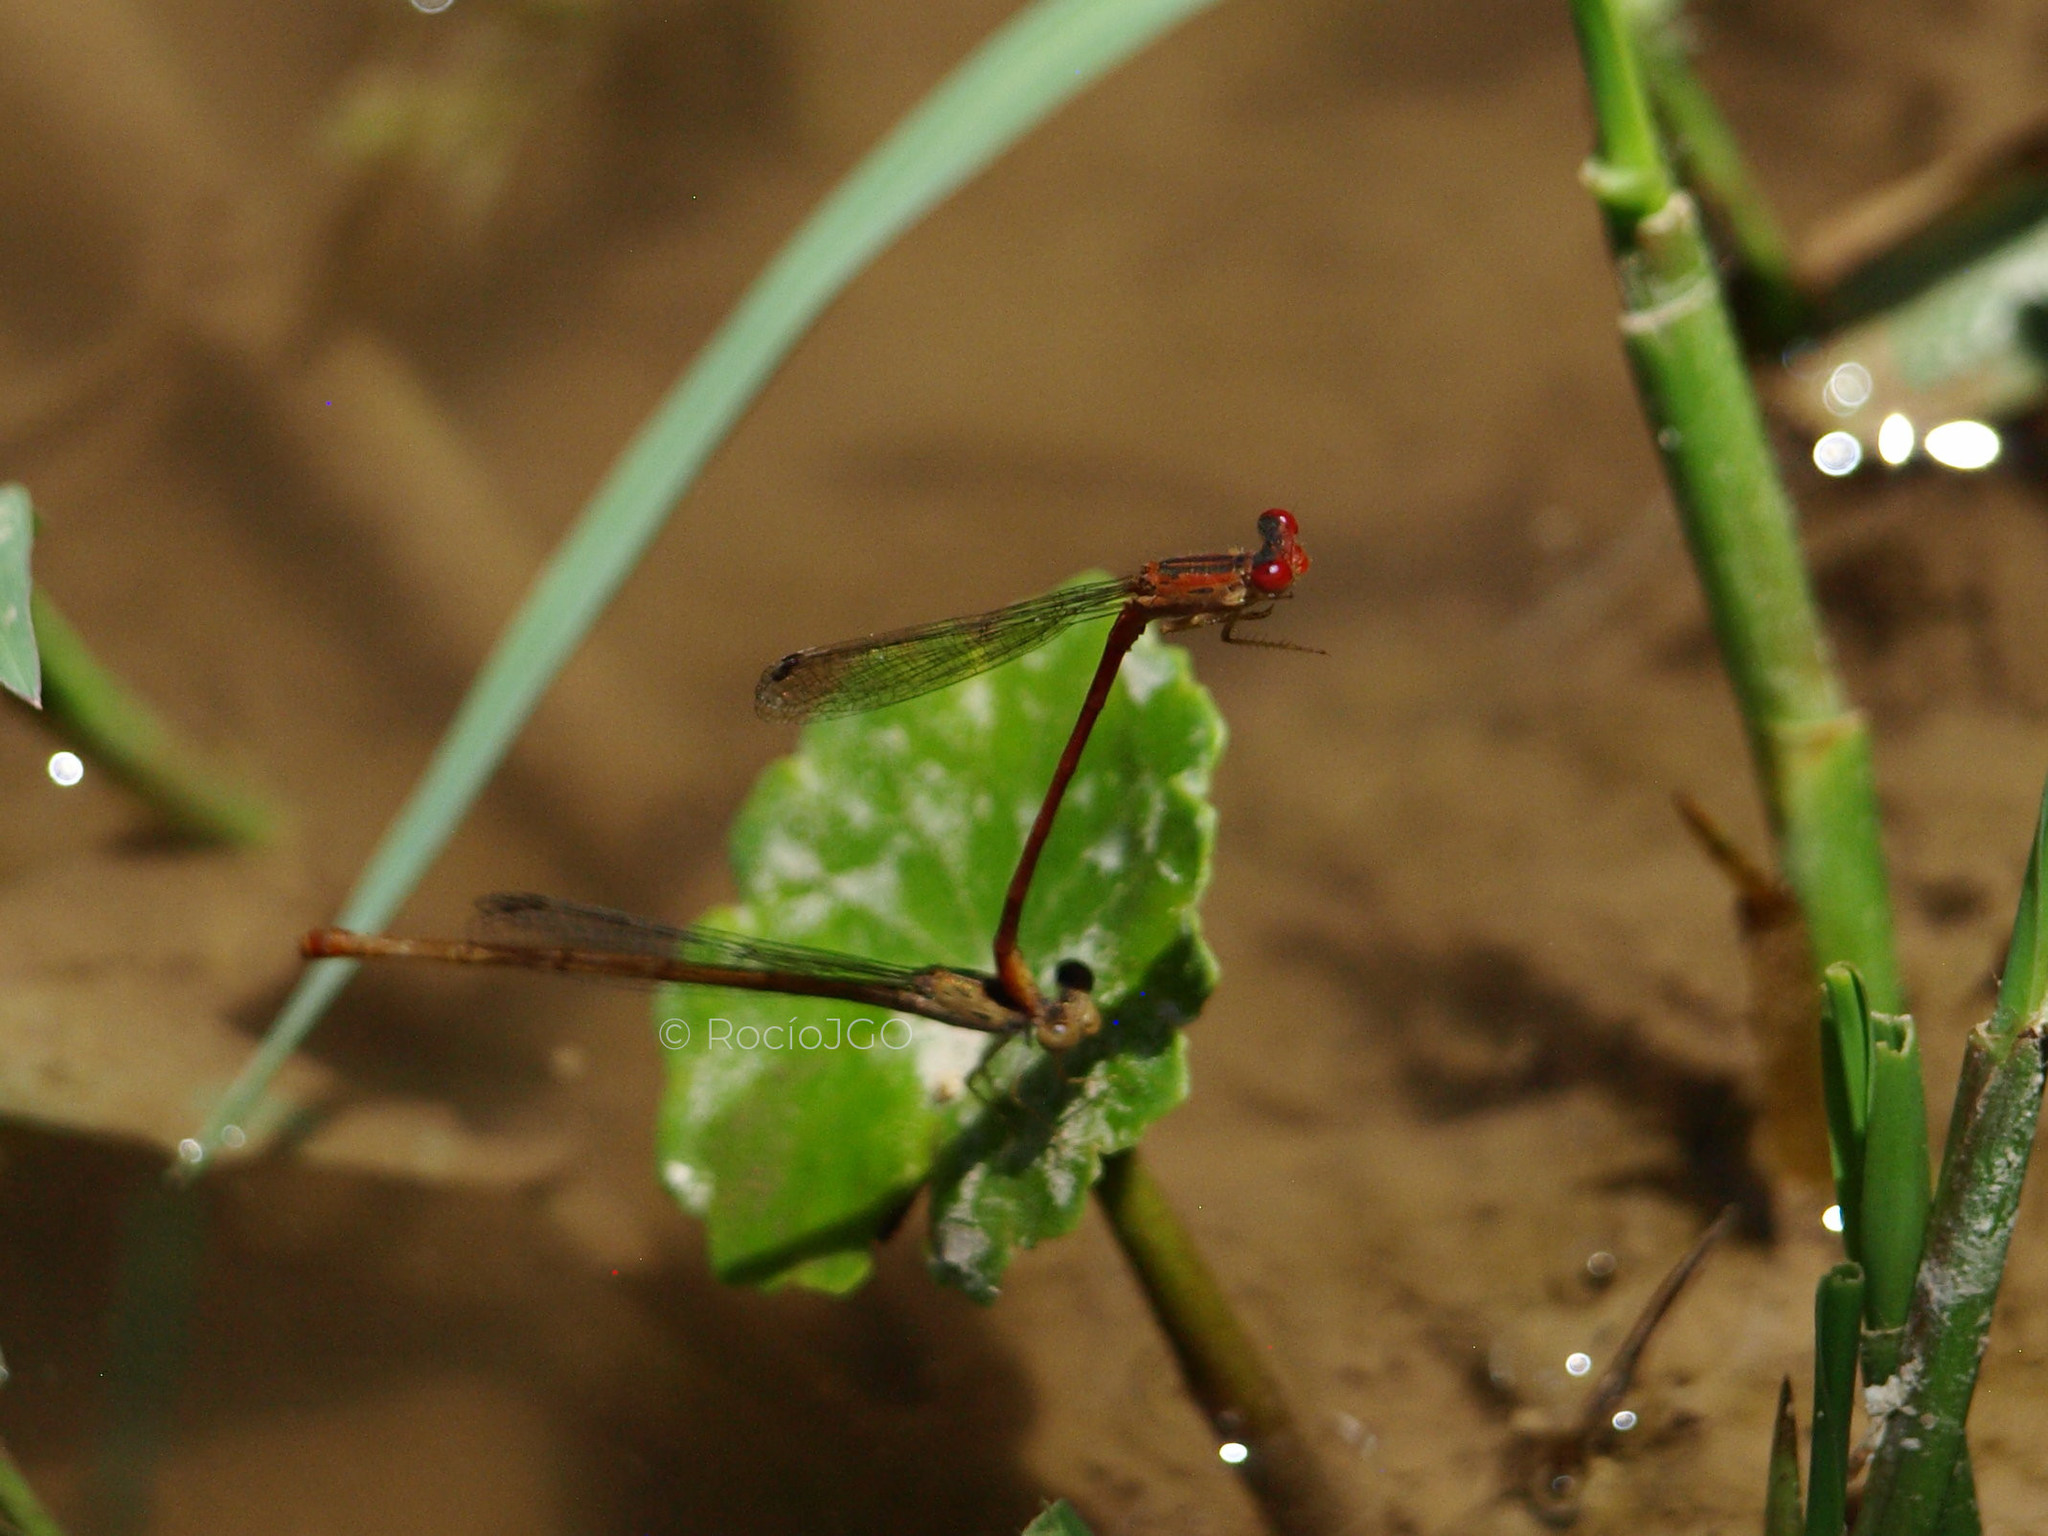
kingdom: Animalia
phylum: Arthropoda
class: Insecta
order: Odonata
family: Coenagrionidae
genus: Telebasis
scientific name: Telebasis salva
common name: Desert firetail
